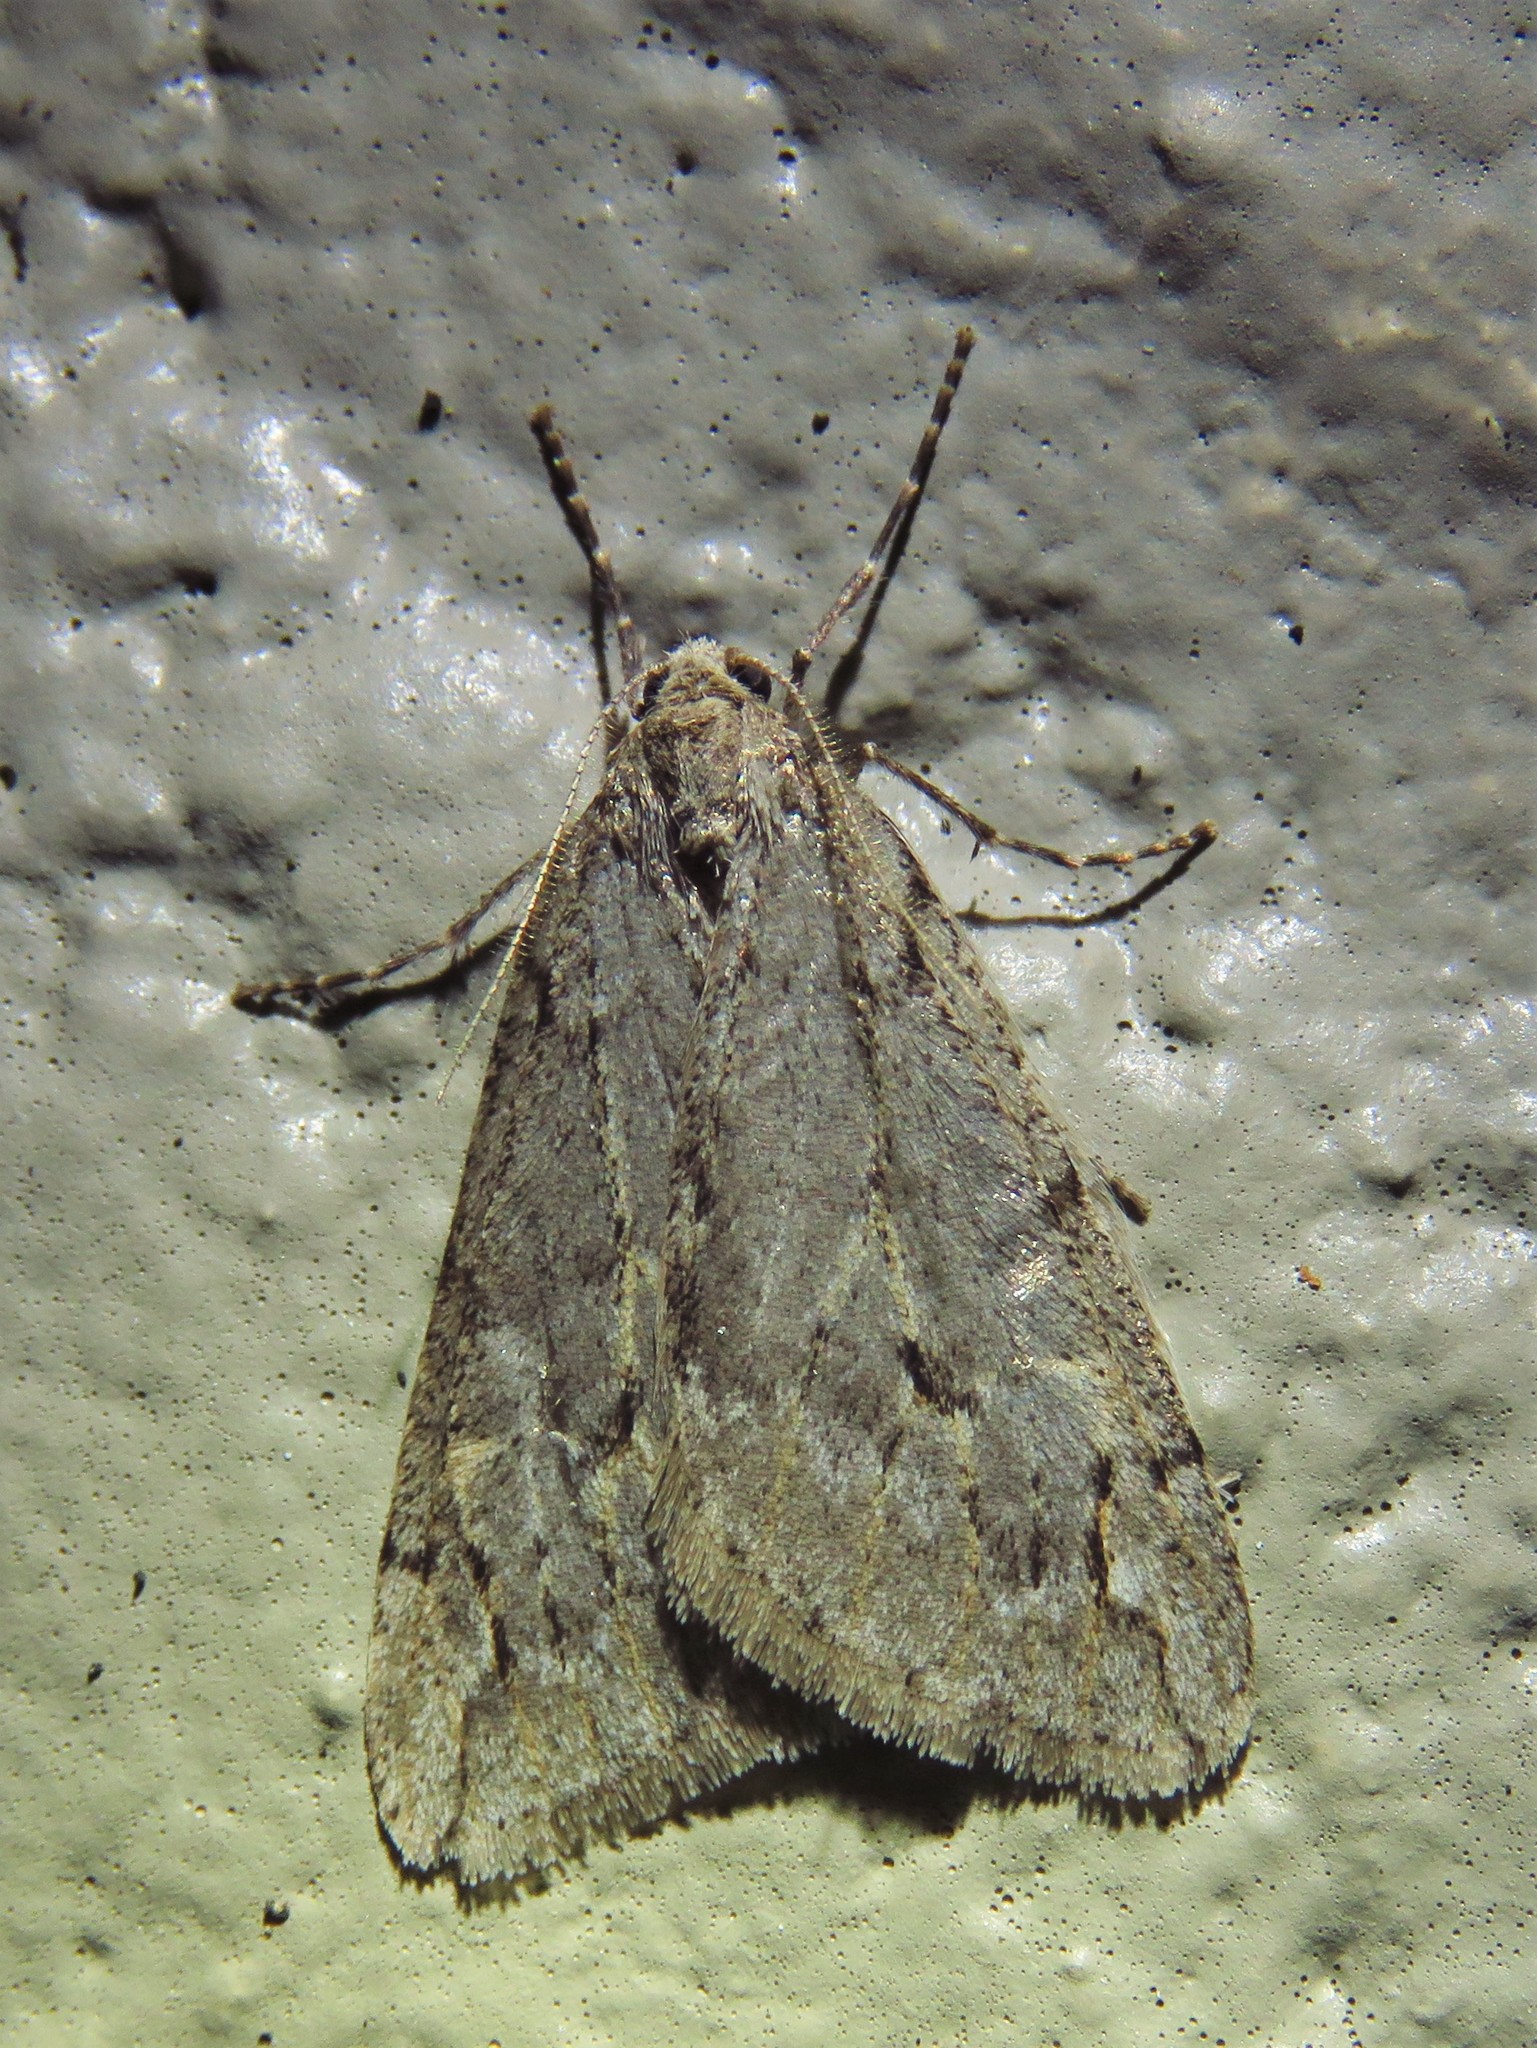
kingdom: Animalia
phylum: Arthropoda
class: Insecta
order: Lepidoptera
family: Geometridae
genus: Paleacrita
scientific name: Paleacrita vernata
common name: Spring cankerworm
